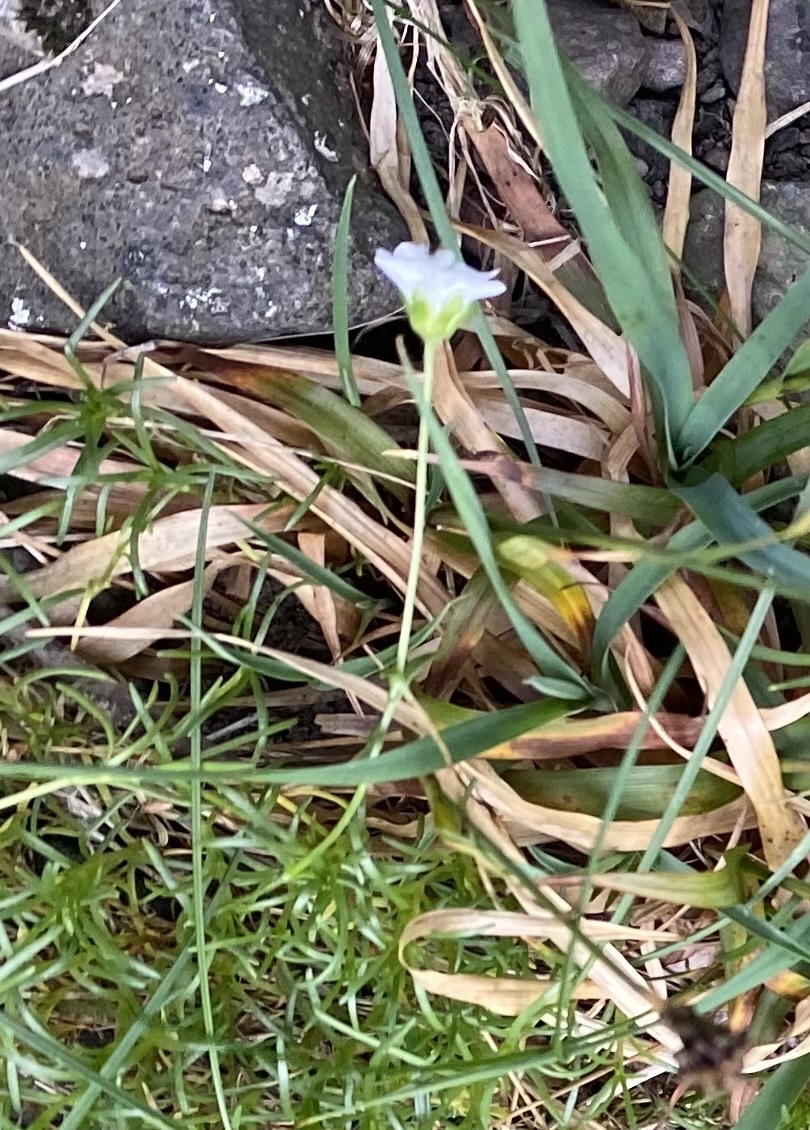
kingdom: Plantae
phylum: Tracheophyta
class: Magnoliopsida
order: Caryophyllales
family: Caryophyllaceae
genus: Cherleria
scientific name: Cherleria arctica
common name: Arctic sandwort
